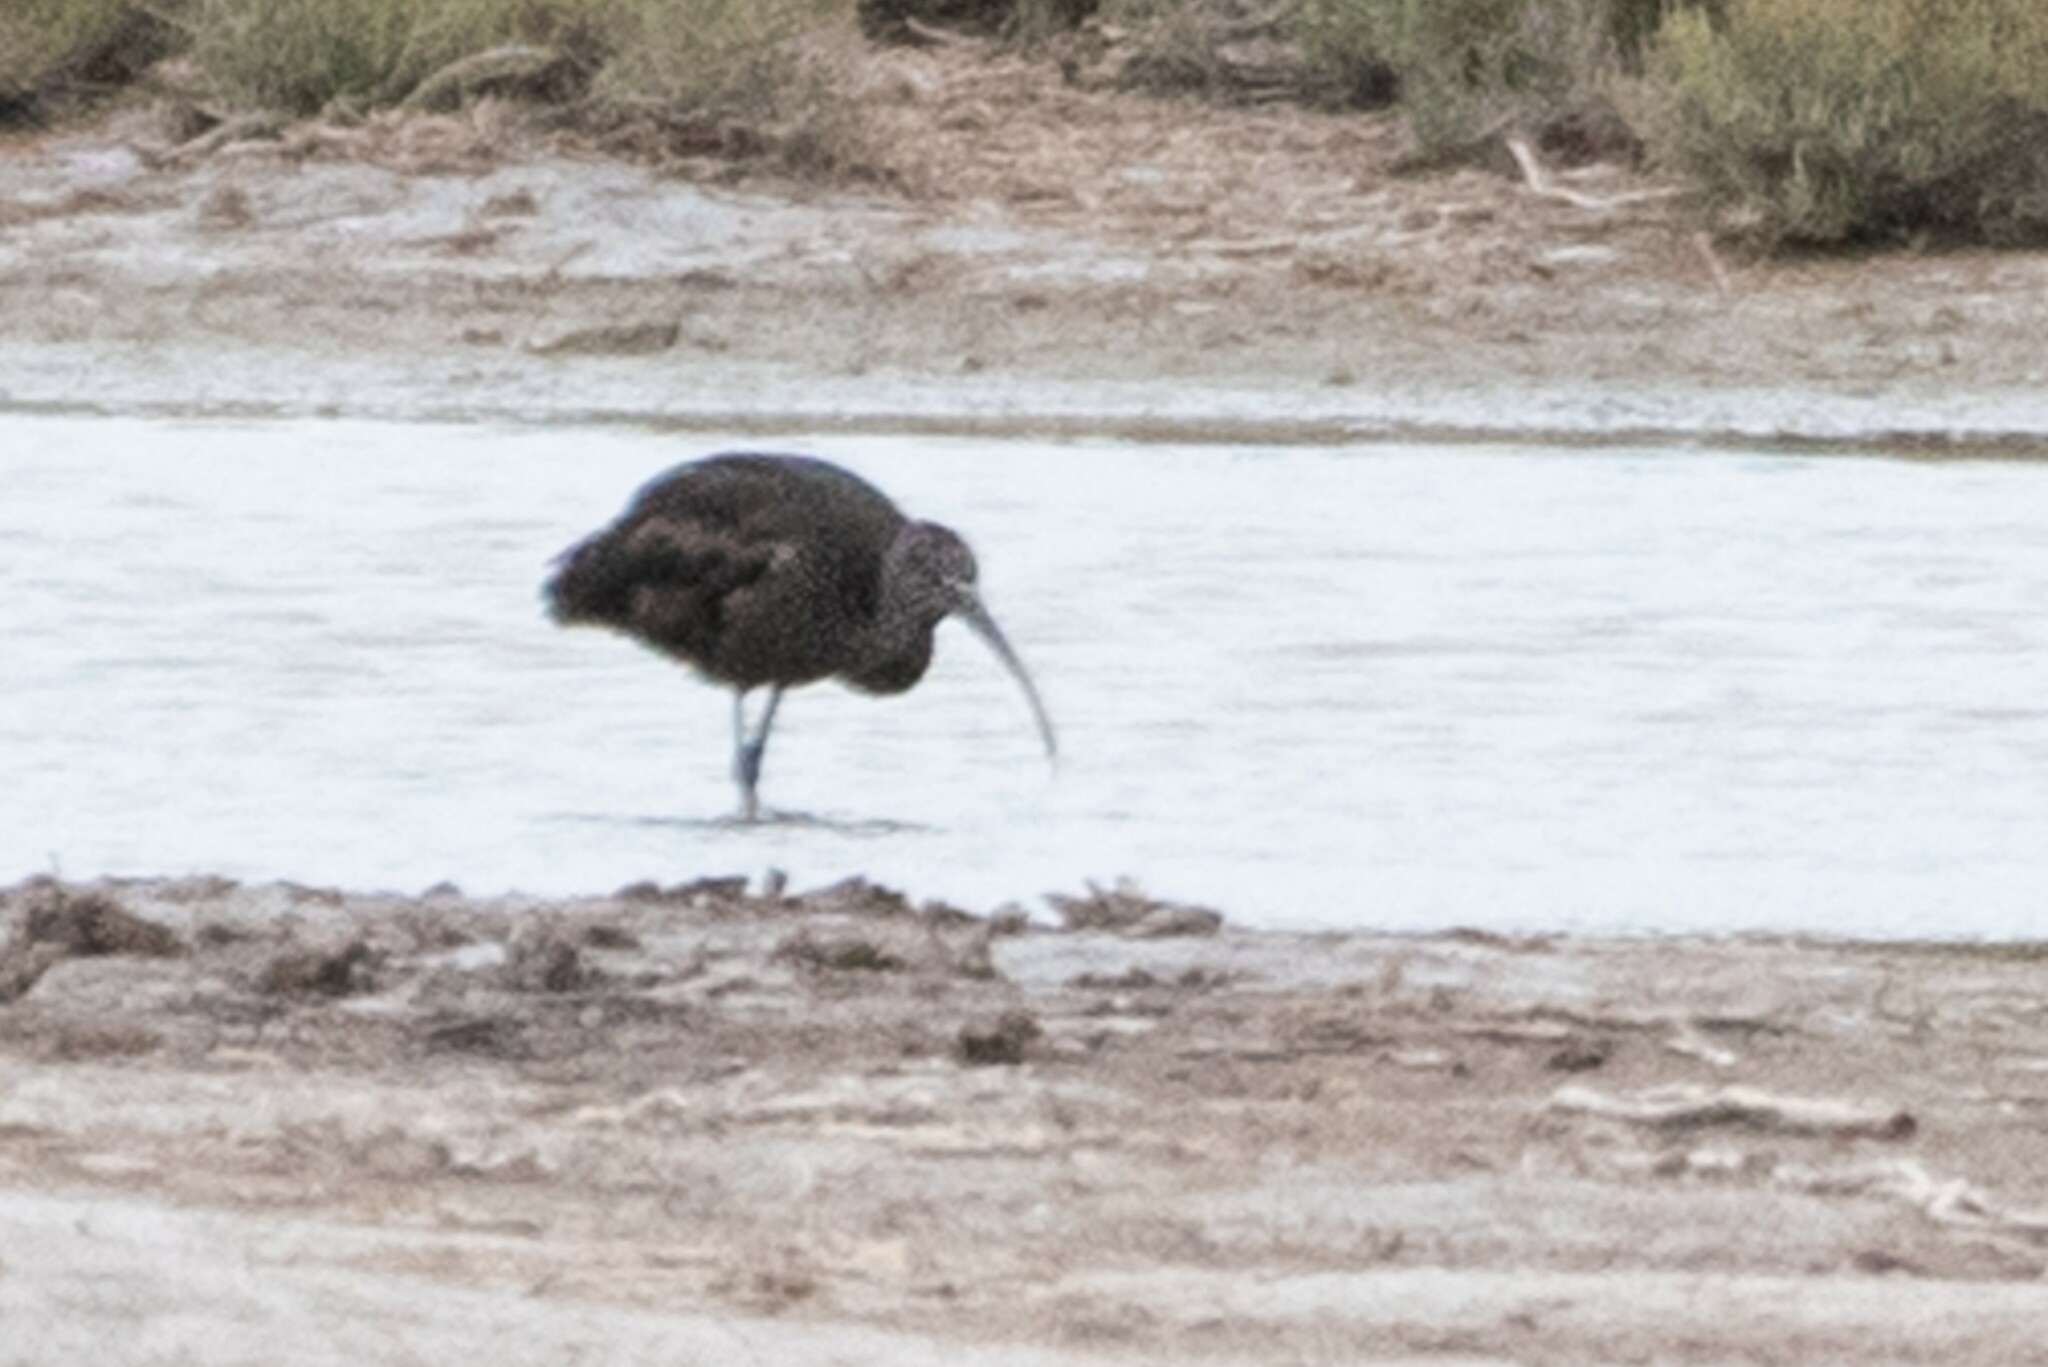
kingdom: Animalia
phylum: Chordata
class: Aves
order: Pelecaniformes
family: Threskiornithidae
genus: Plegadis
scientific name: Plegadis falcinellus
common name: Glossy ibis
